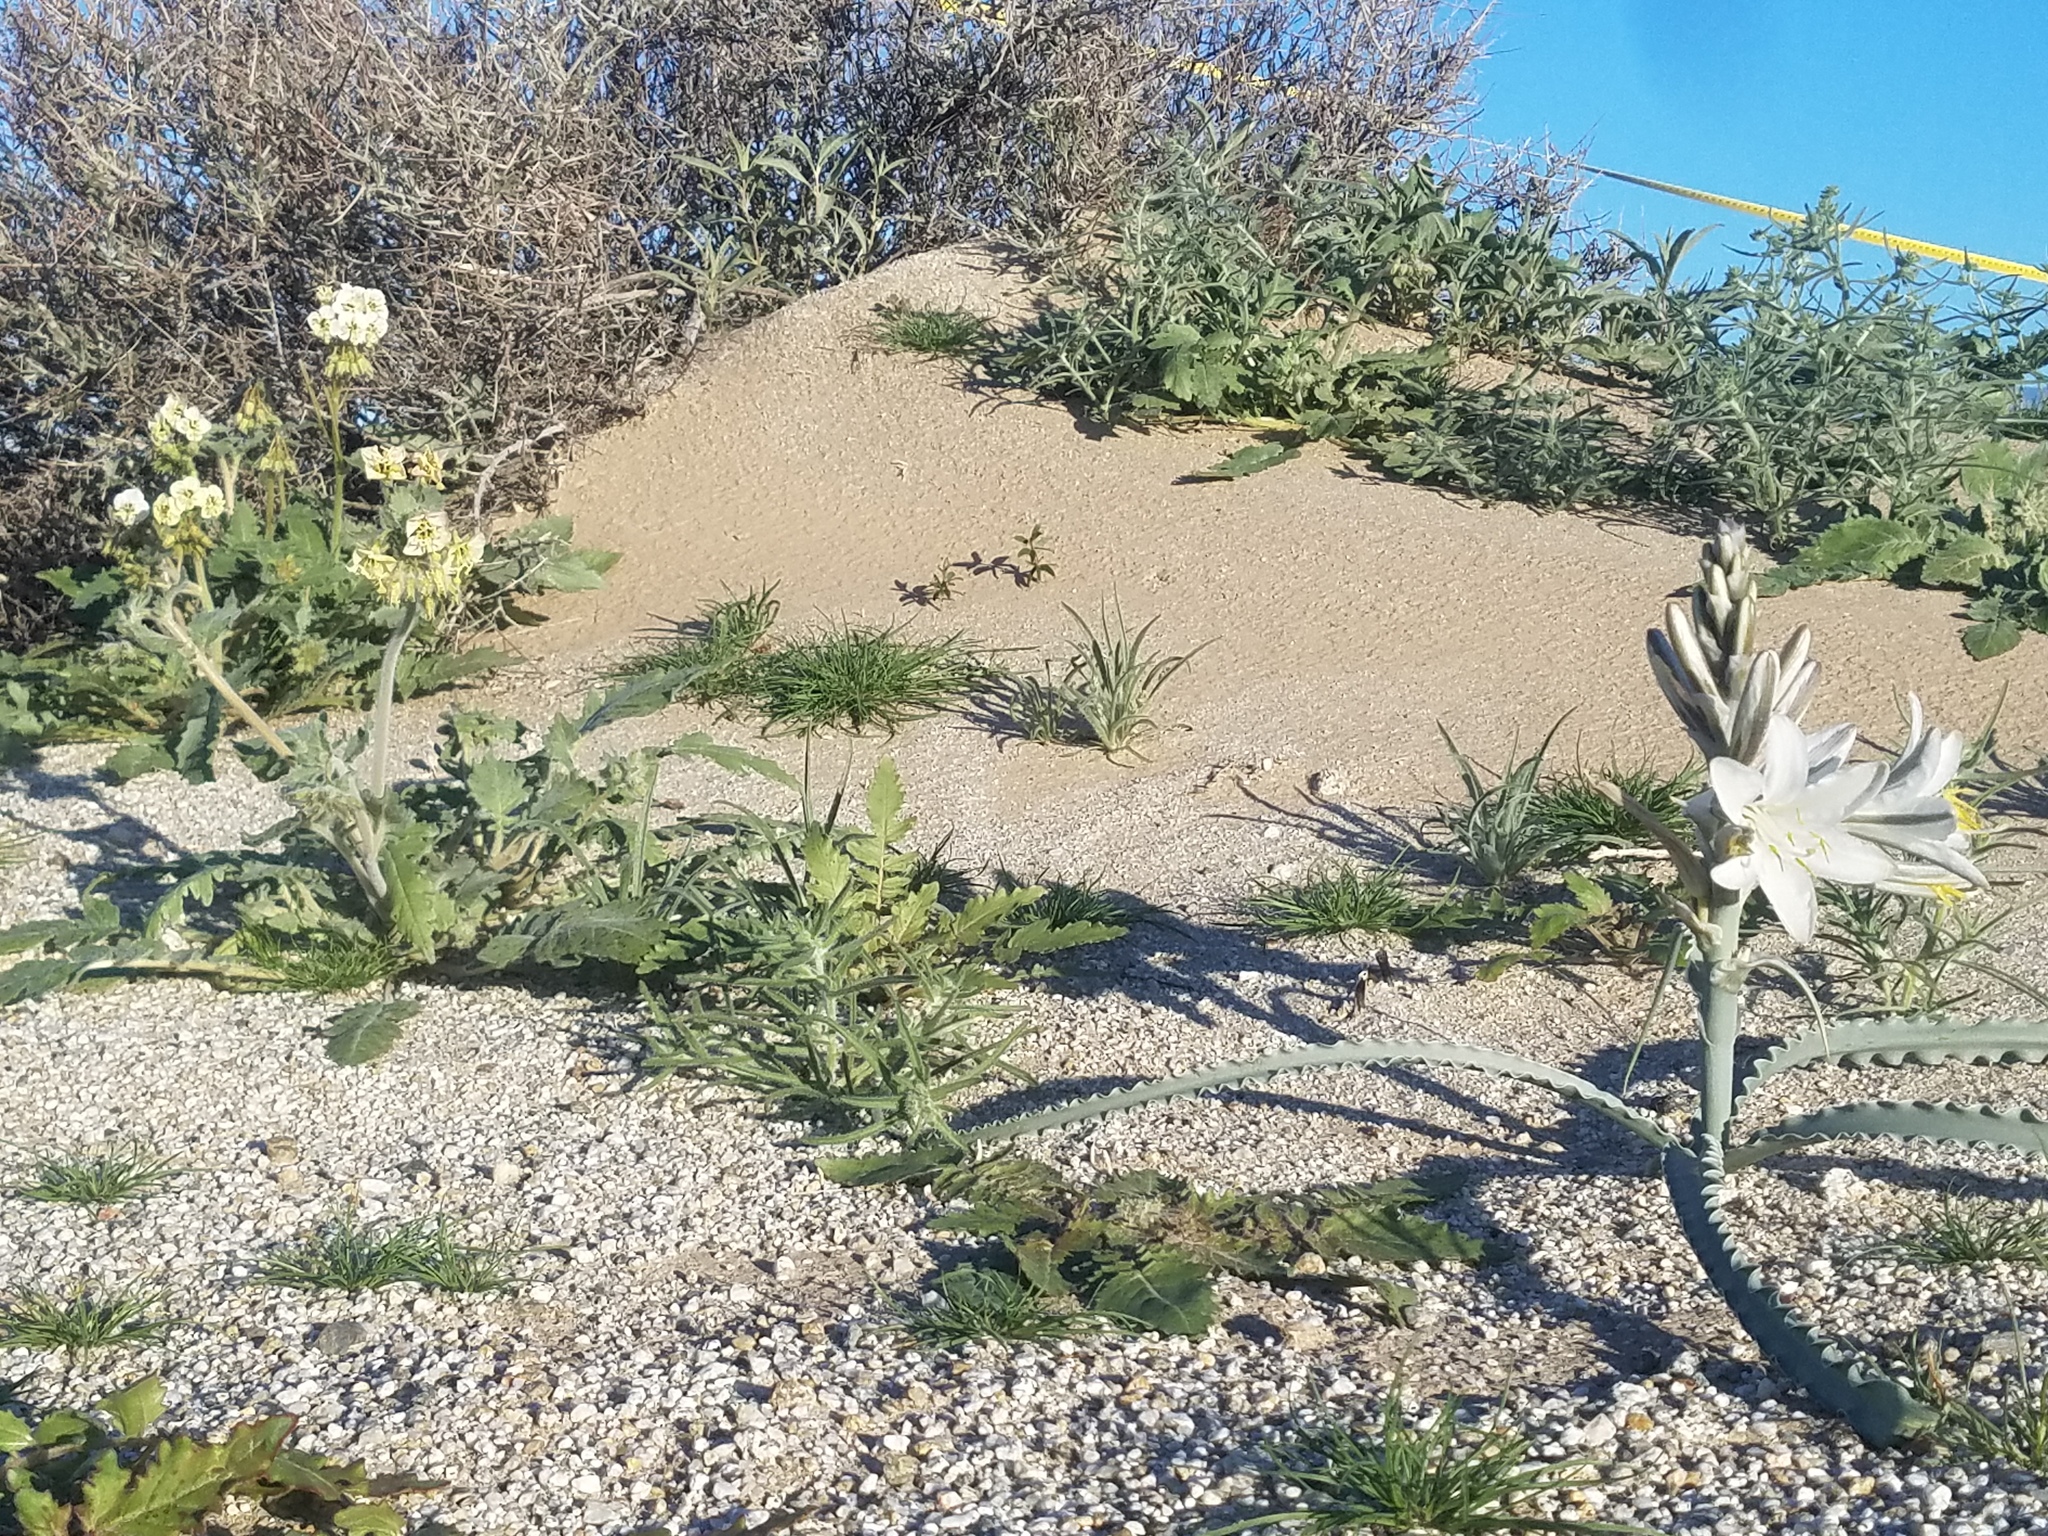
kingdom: Plantae
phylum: Tracheophyta
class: Liliopsida
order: Asparagales
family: Asparagaceae
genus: Hesperocallis
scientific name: Hesperocallis undulata
